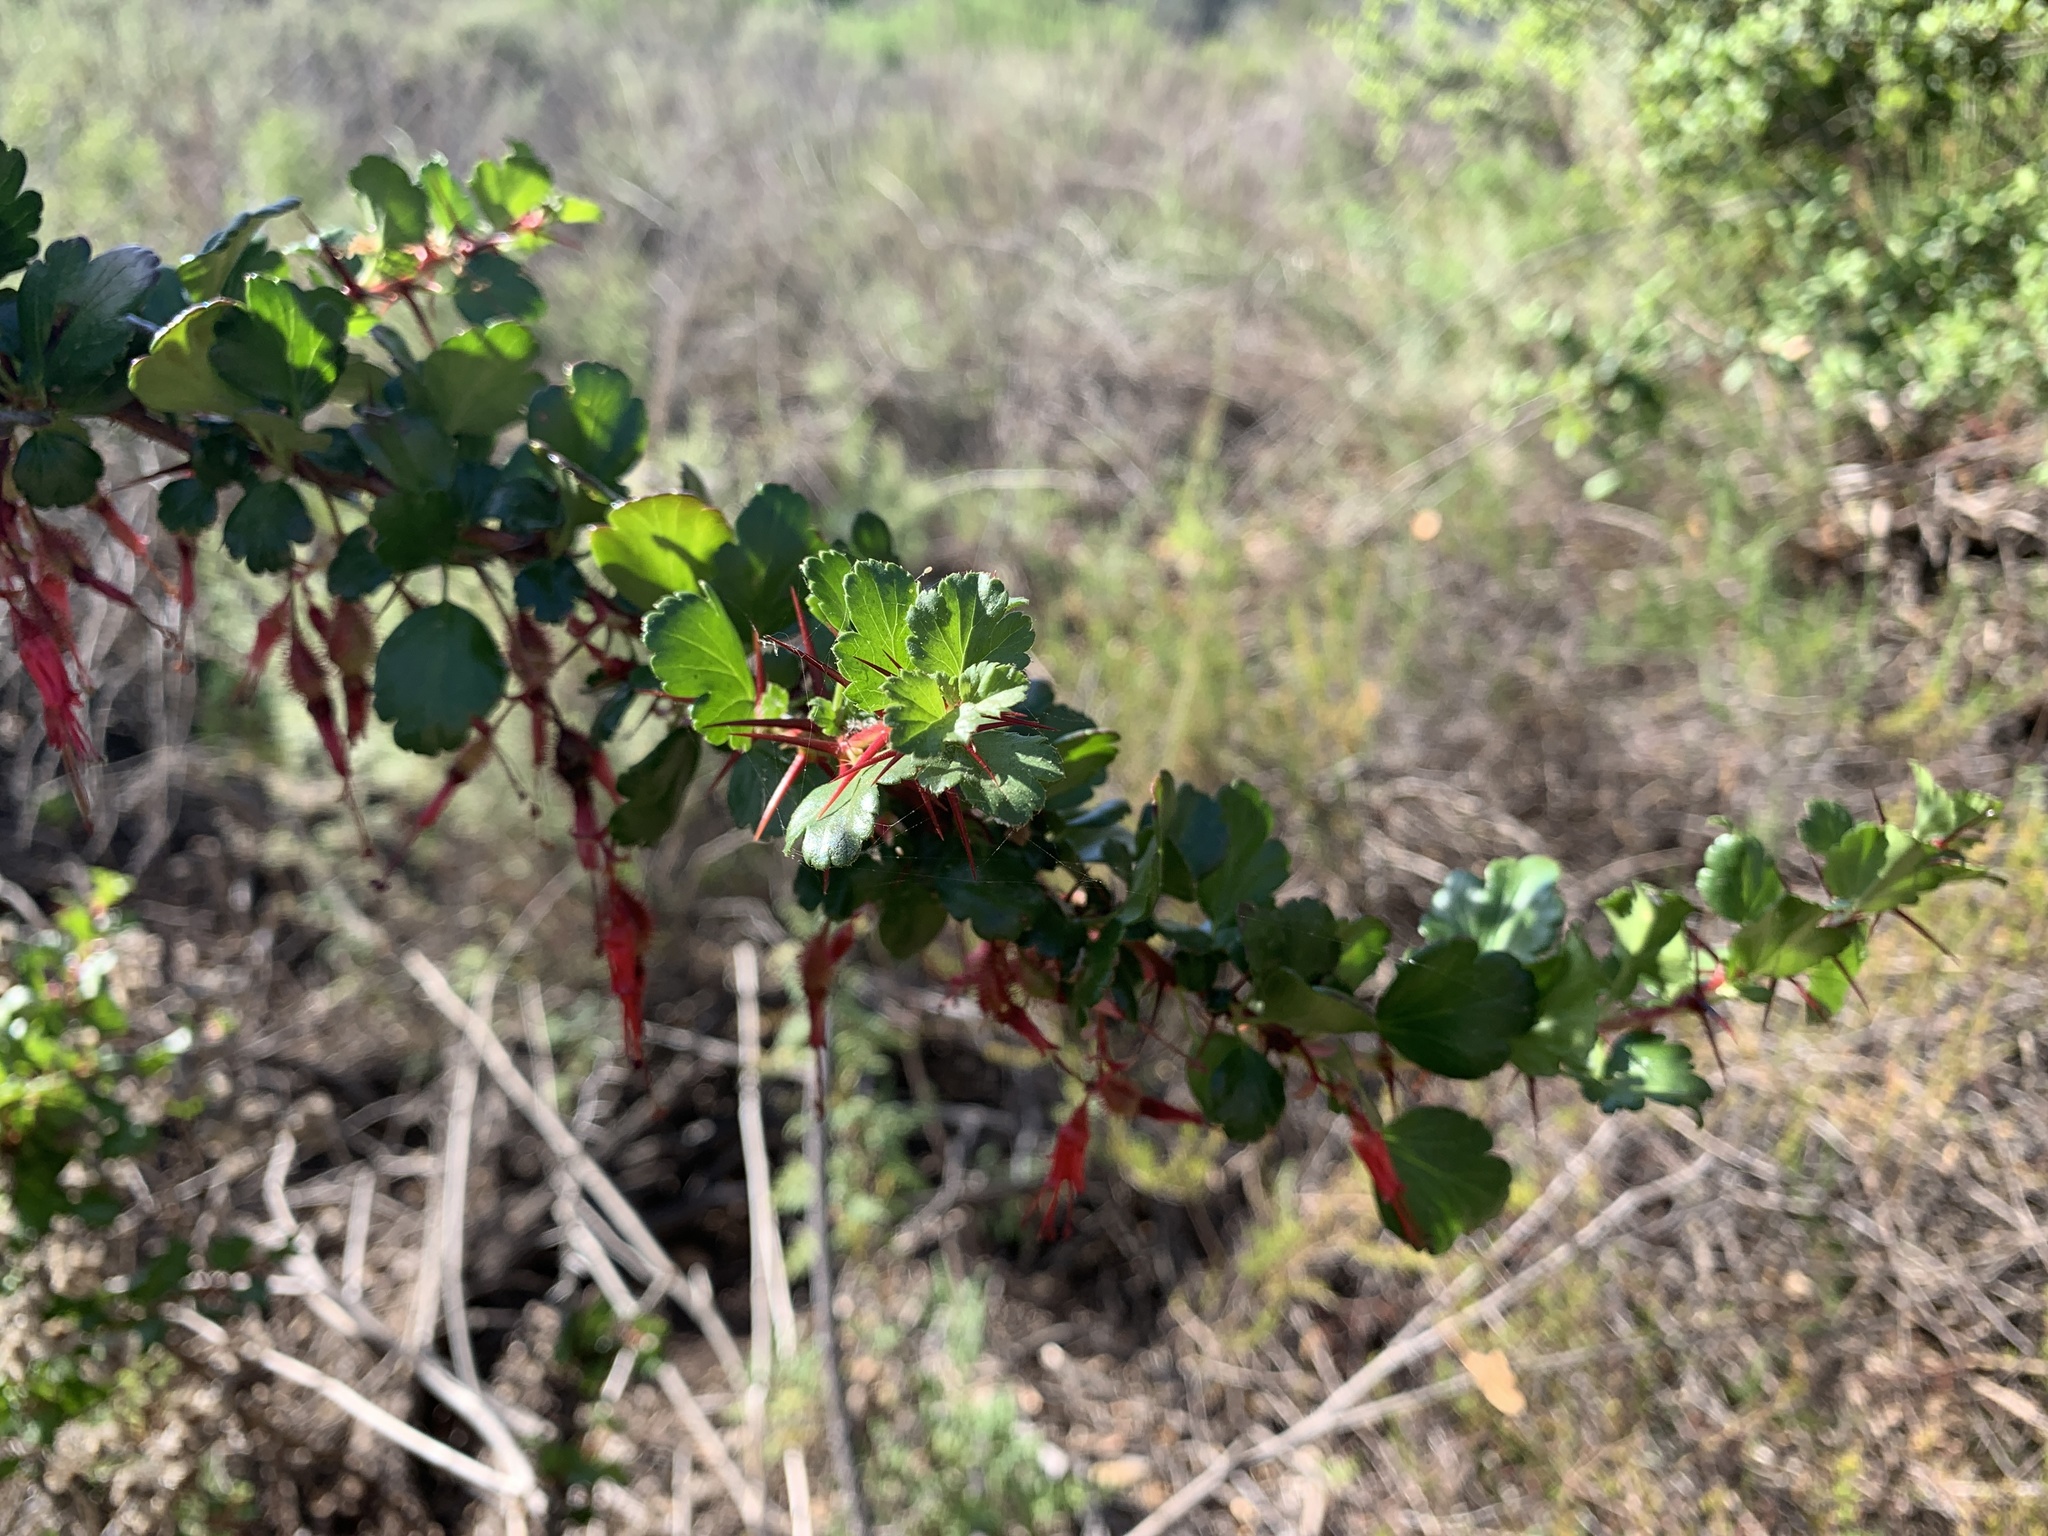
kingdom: Plantae
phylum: Tracheophyta
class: Magnoliopsida
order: Saxifragales
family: Grossulariaceae
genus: Ribes
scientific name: Ribes speciosum
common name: Fuchsia-flower gooseberry
